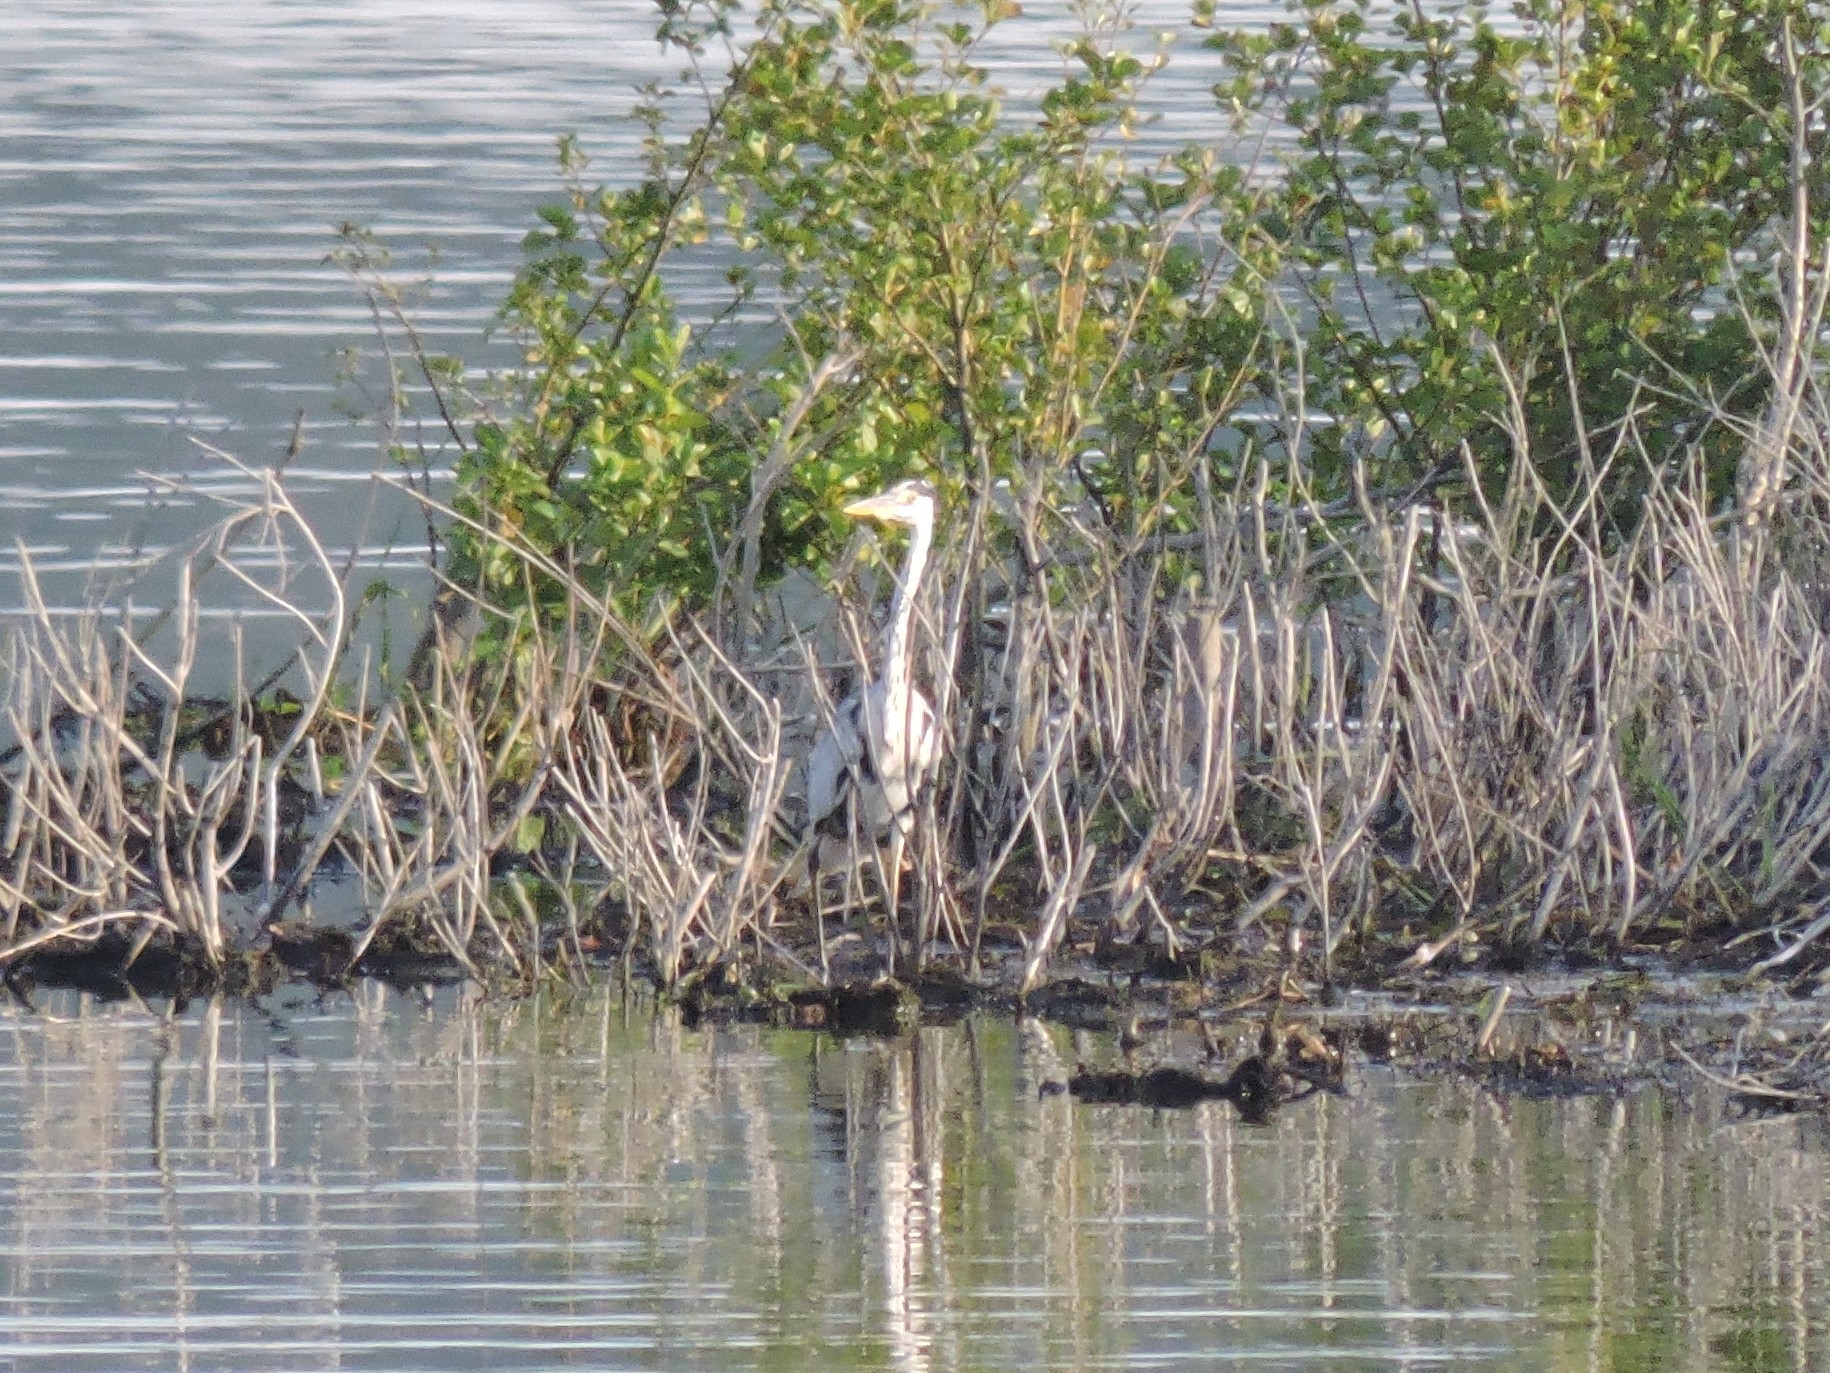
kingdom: Animalia
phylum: Chordata
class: Aves
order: Pelecaniformes
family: Ardeidae
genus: Ardea
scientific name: Ardea cinerea
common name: Grey heron
